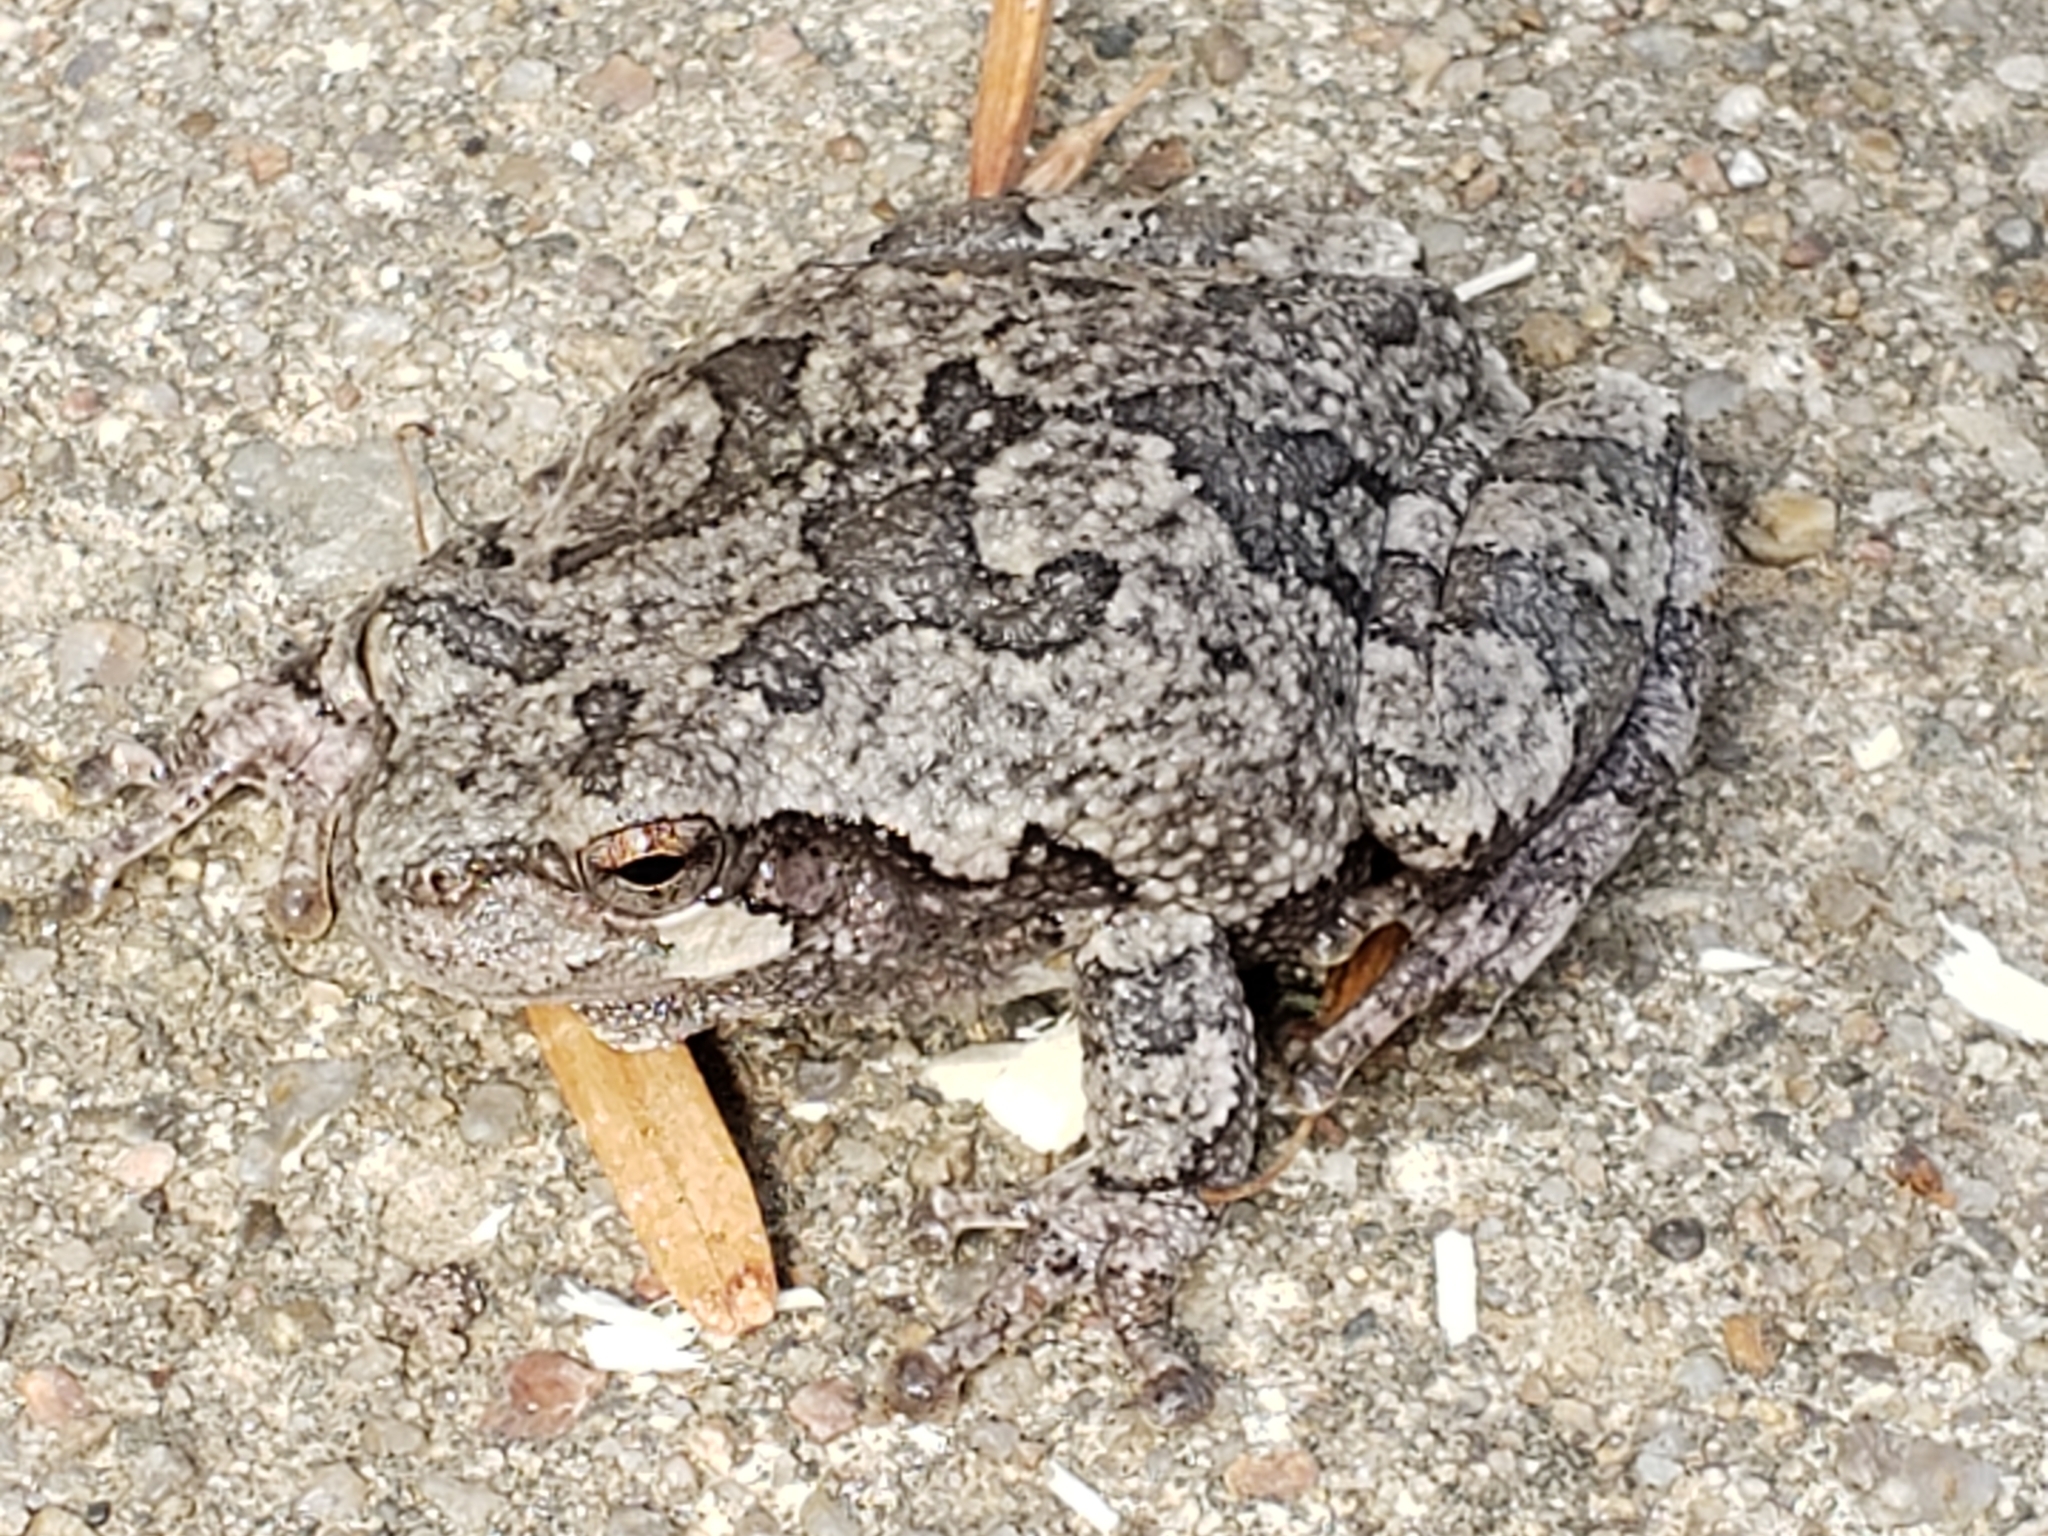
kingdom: Animalia
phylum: Chordata
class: Amphibia
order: Anura
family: Hylidae
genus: Hyla
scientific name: Hyla
